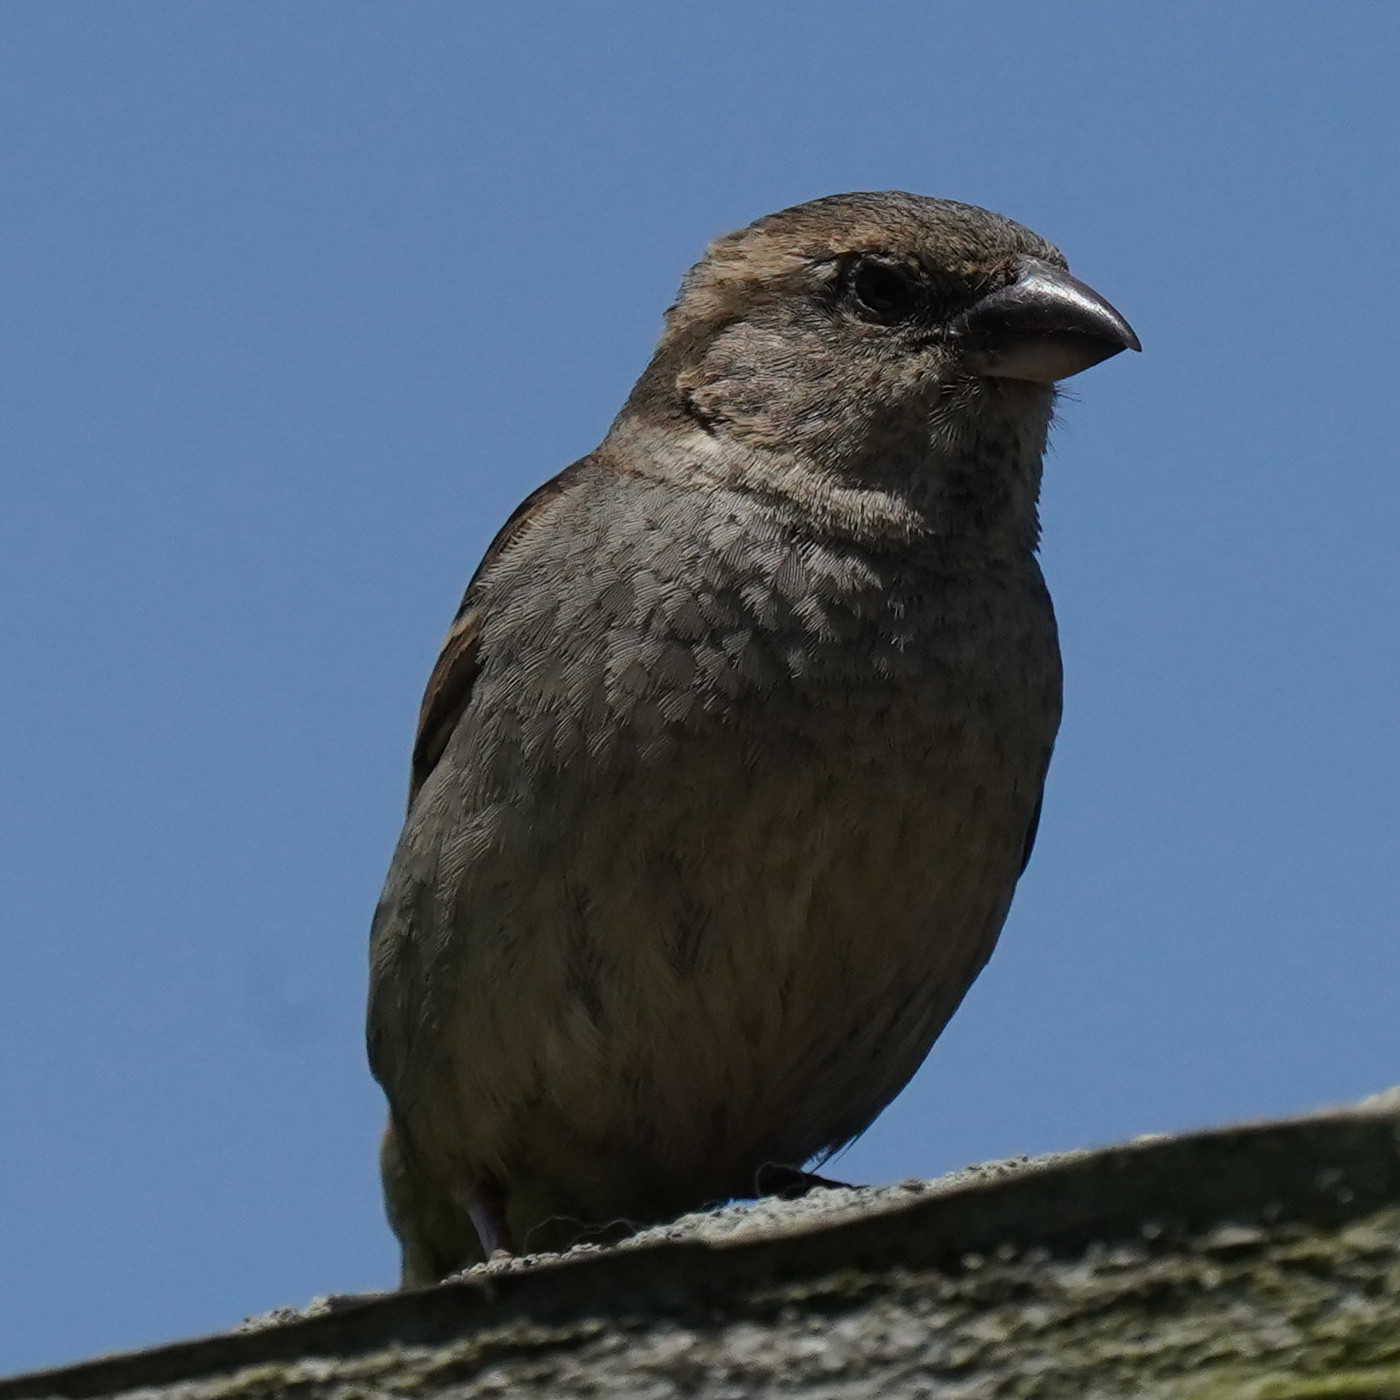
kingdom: Animalia
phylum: Chordata
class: Aves
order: Passeriformes
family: Passeridae
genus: Passer
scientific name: Passer domesticus
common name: House sparrow
